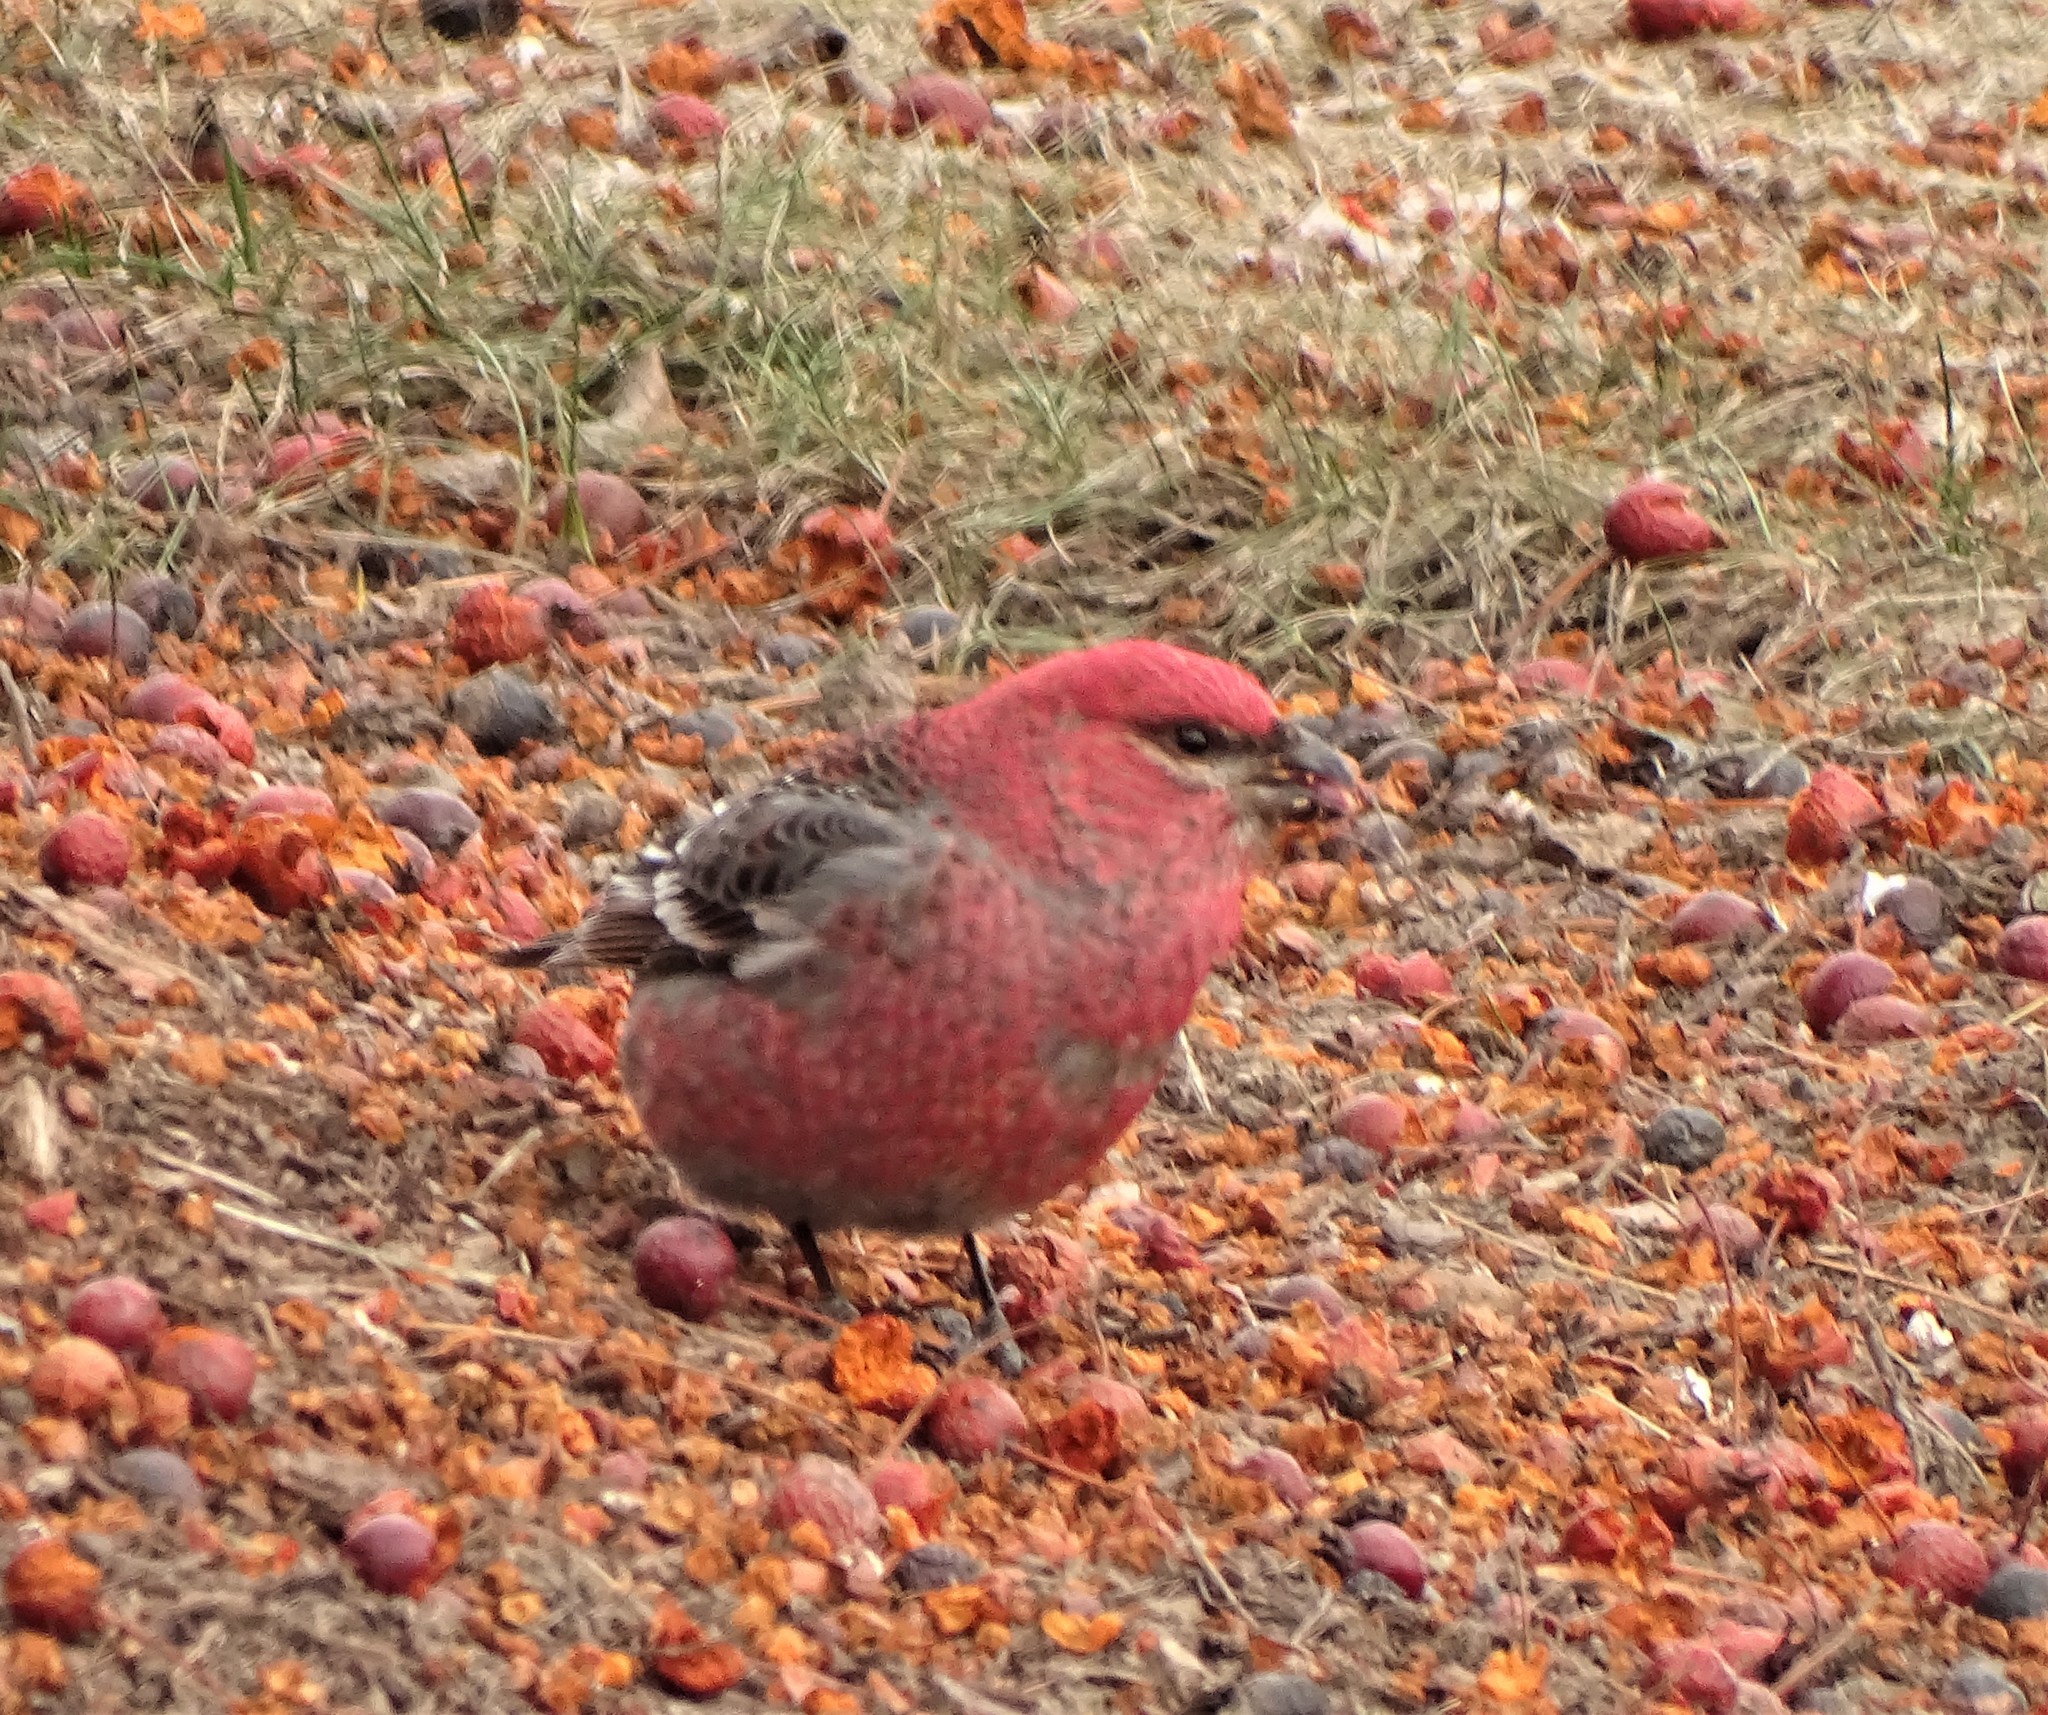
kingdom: Animalia
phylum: Chordata
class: Aves
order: Passeriformes
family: Fringillidae
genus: Pinicola
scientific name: Pinicola enucleator
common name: Pine grosbeak
